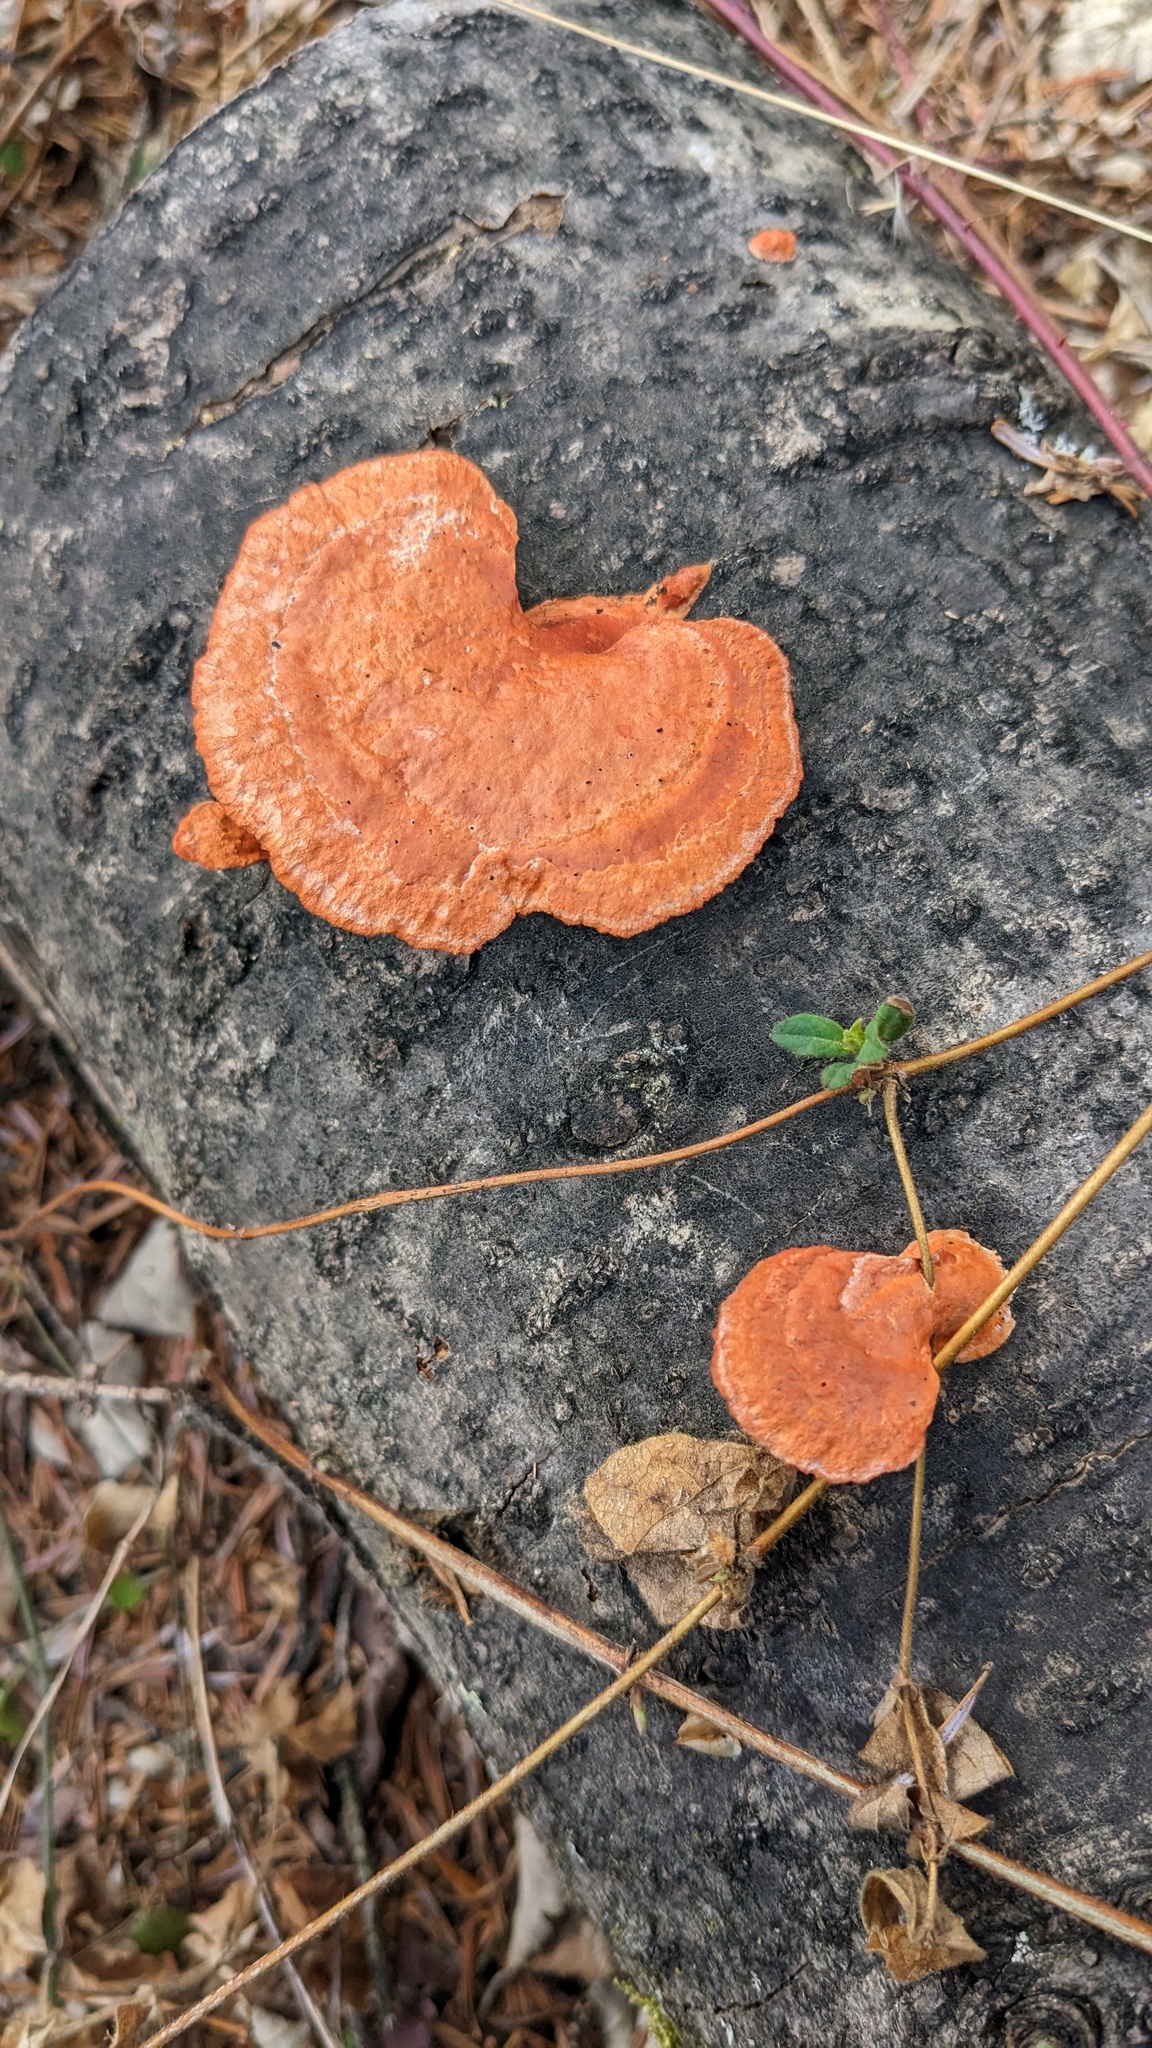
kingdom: Fungi
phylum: Basidiomycota
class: Agaricomycetes
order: Polyporales
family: Polyporaceae
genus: Trametes
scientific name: Trametes coccinea
